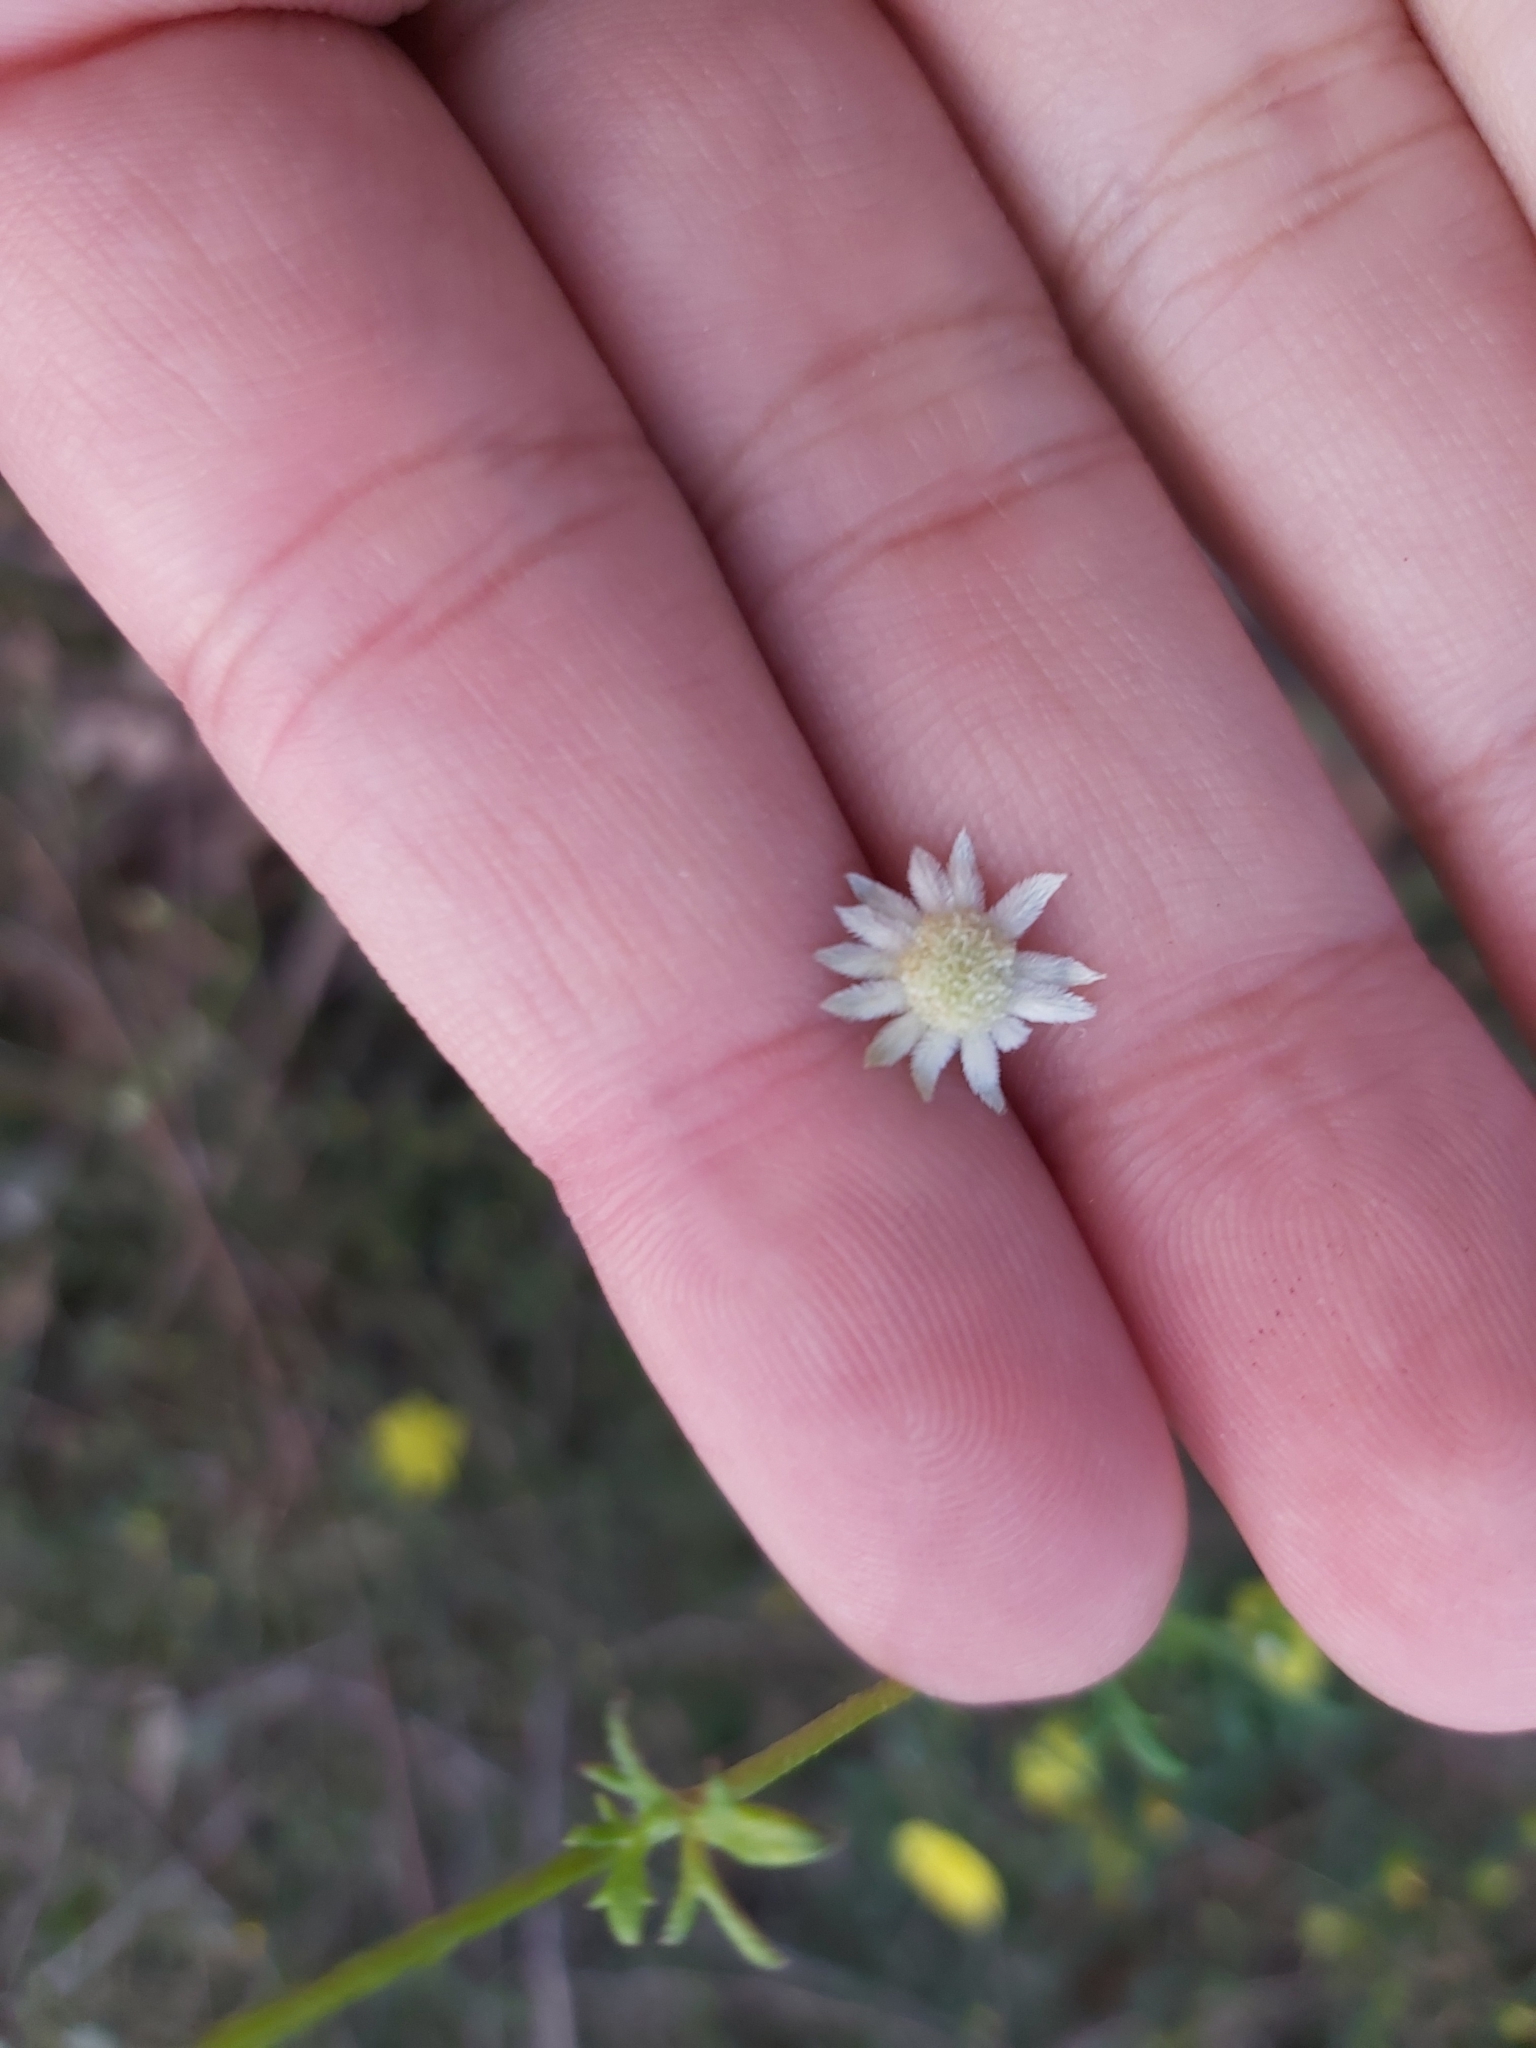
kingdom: Plantae
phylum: Tracheophyta
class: Magnoliopsida
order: Apiales
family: Apiaceae
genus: Actinotus
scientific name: Actinotus minor
